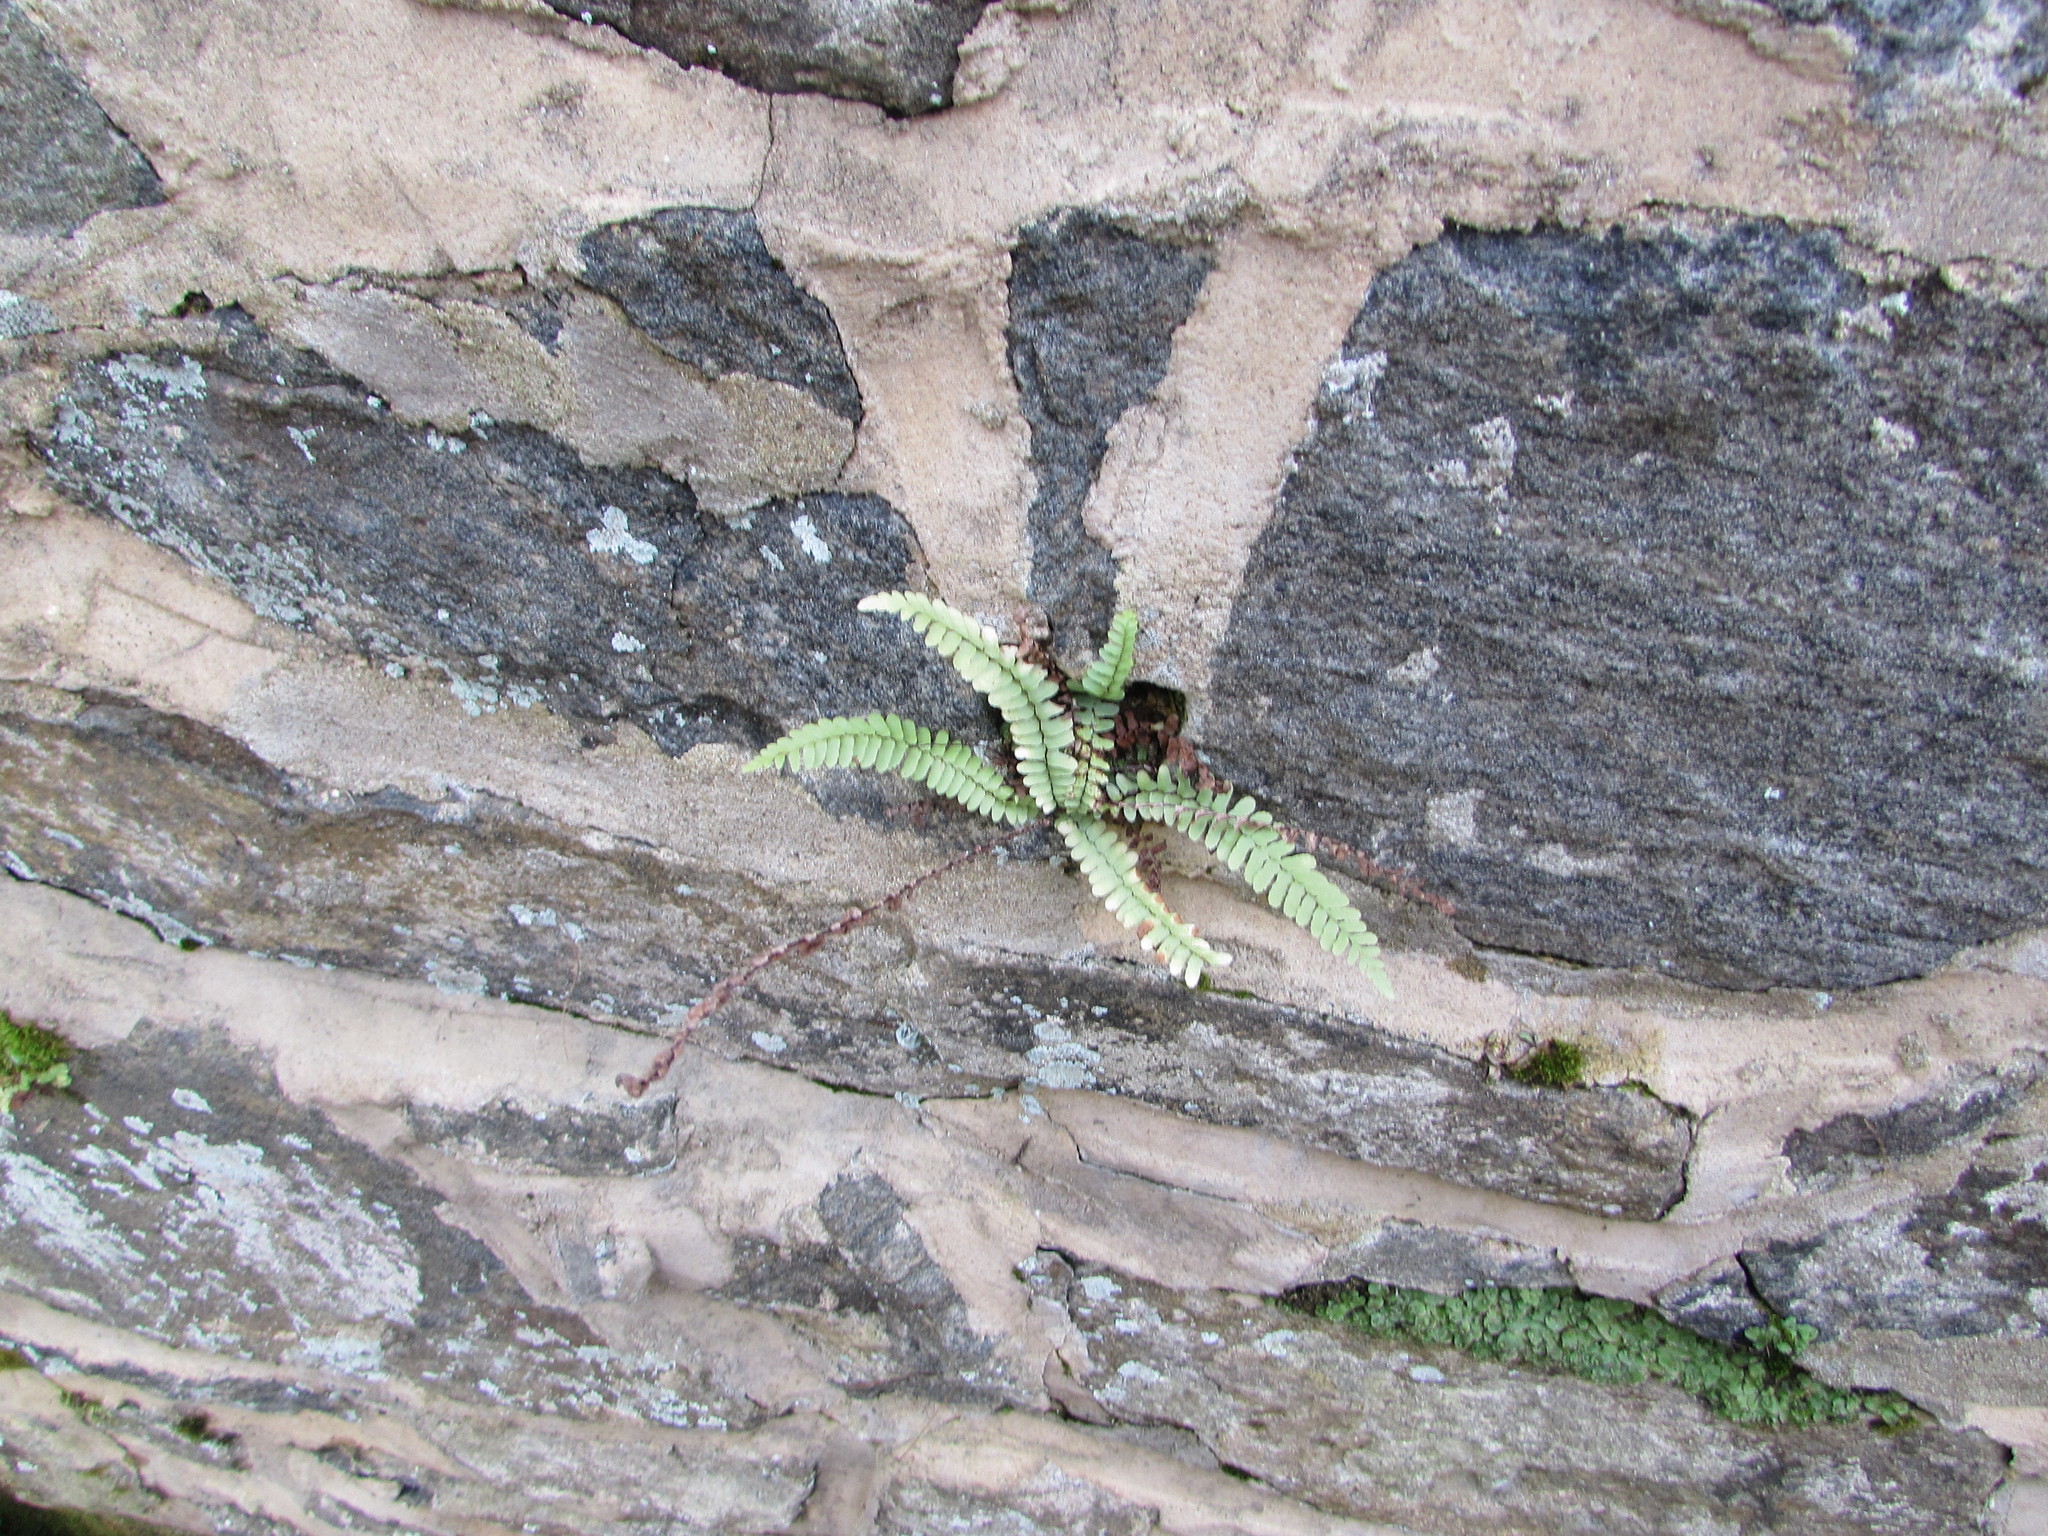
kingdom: Plantae
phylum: Tracheophyta
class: Polypodiopsida
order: Polypodiales
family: Aspleniaceae
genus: Asplenium
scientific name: Asplenium platyneuron
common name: Ebony spleenwort
